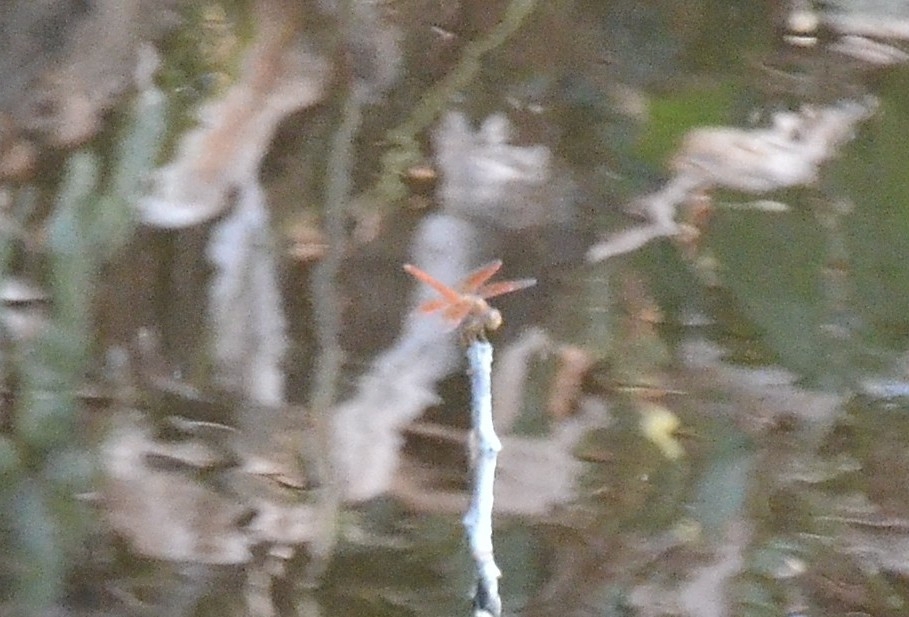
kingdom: Animalia
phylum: Arthropoda
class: Insecta
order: Odonata
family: Libellulidae
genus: Brachythemis
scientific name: Brachythemis contaminata
